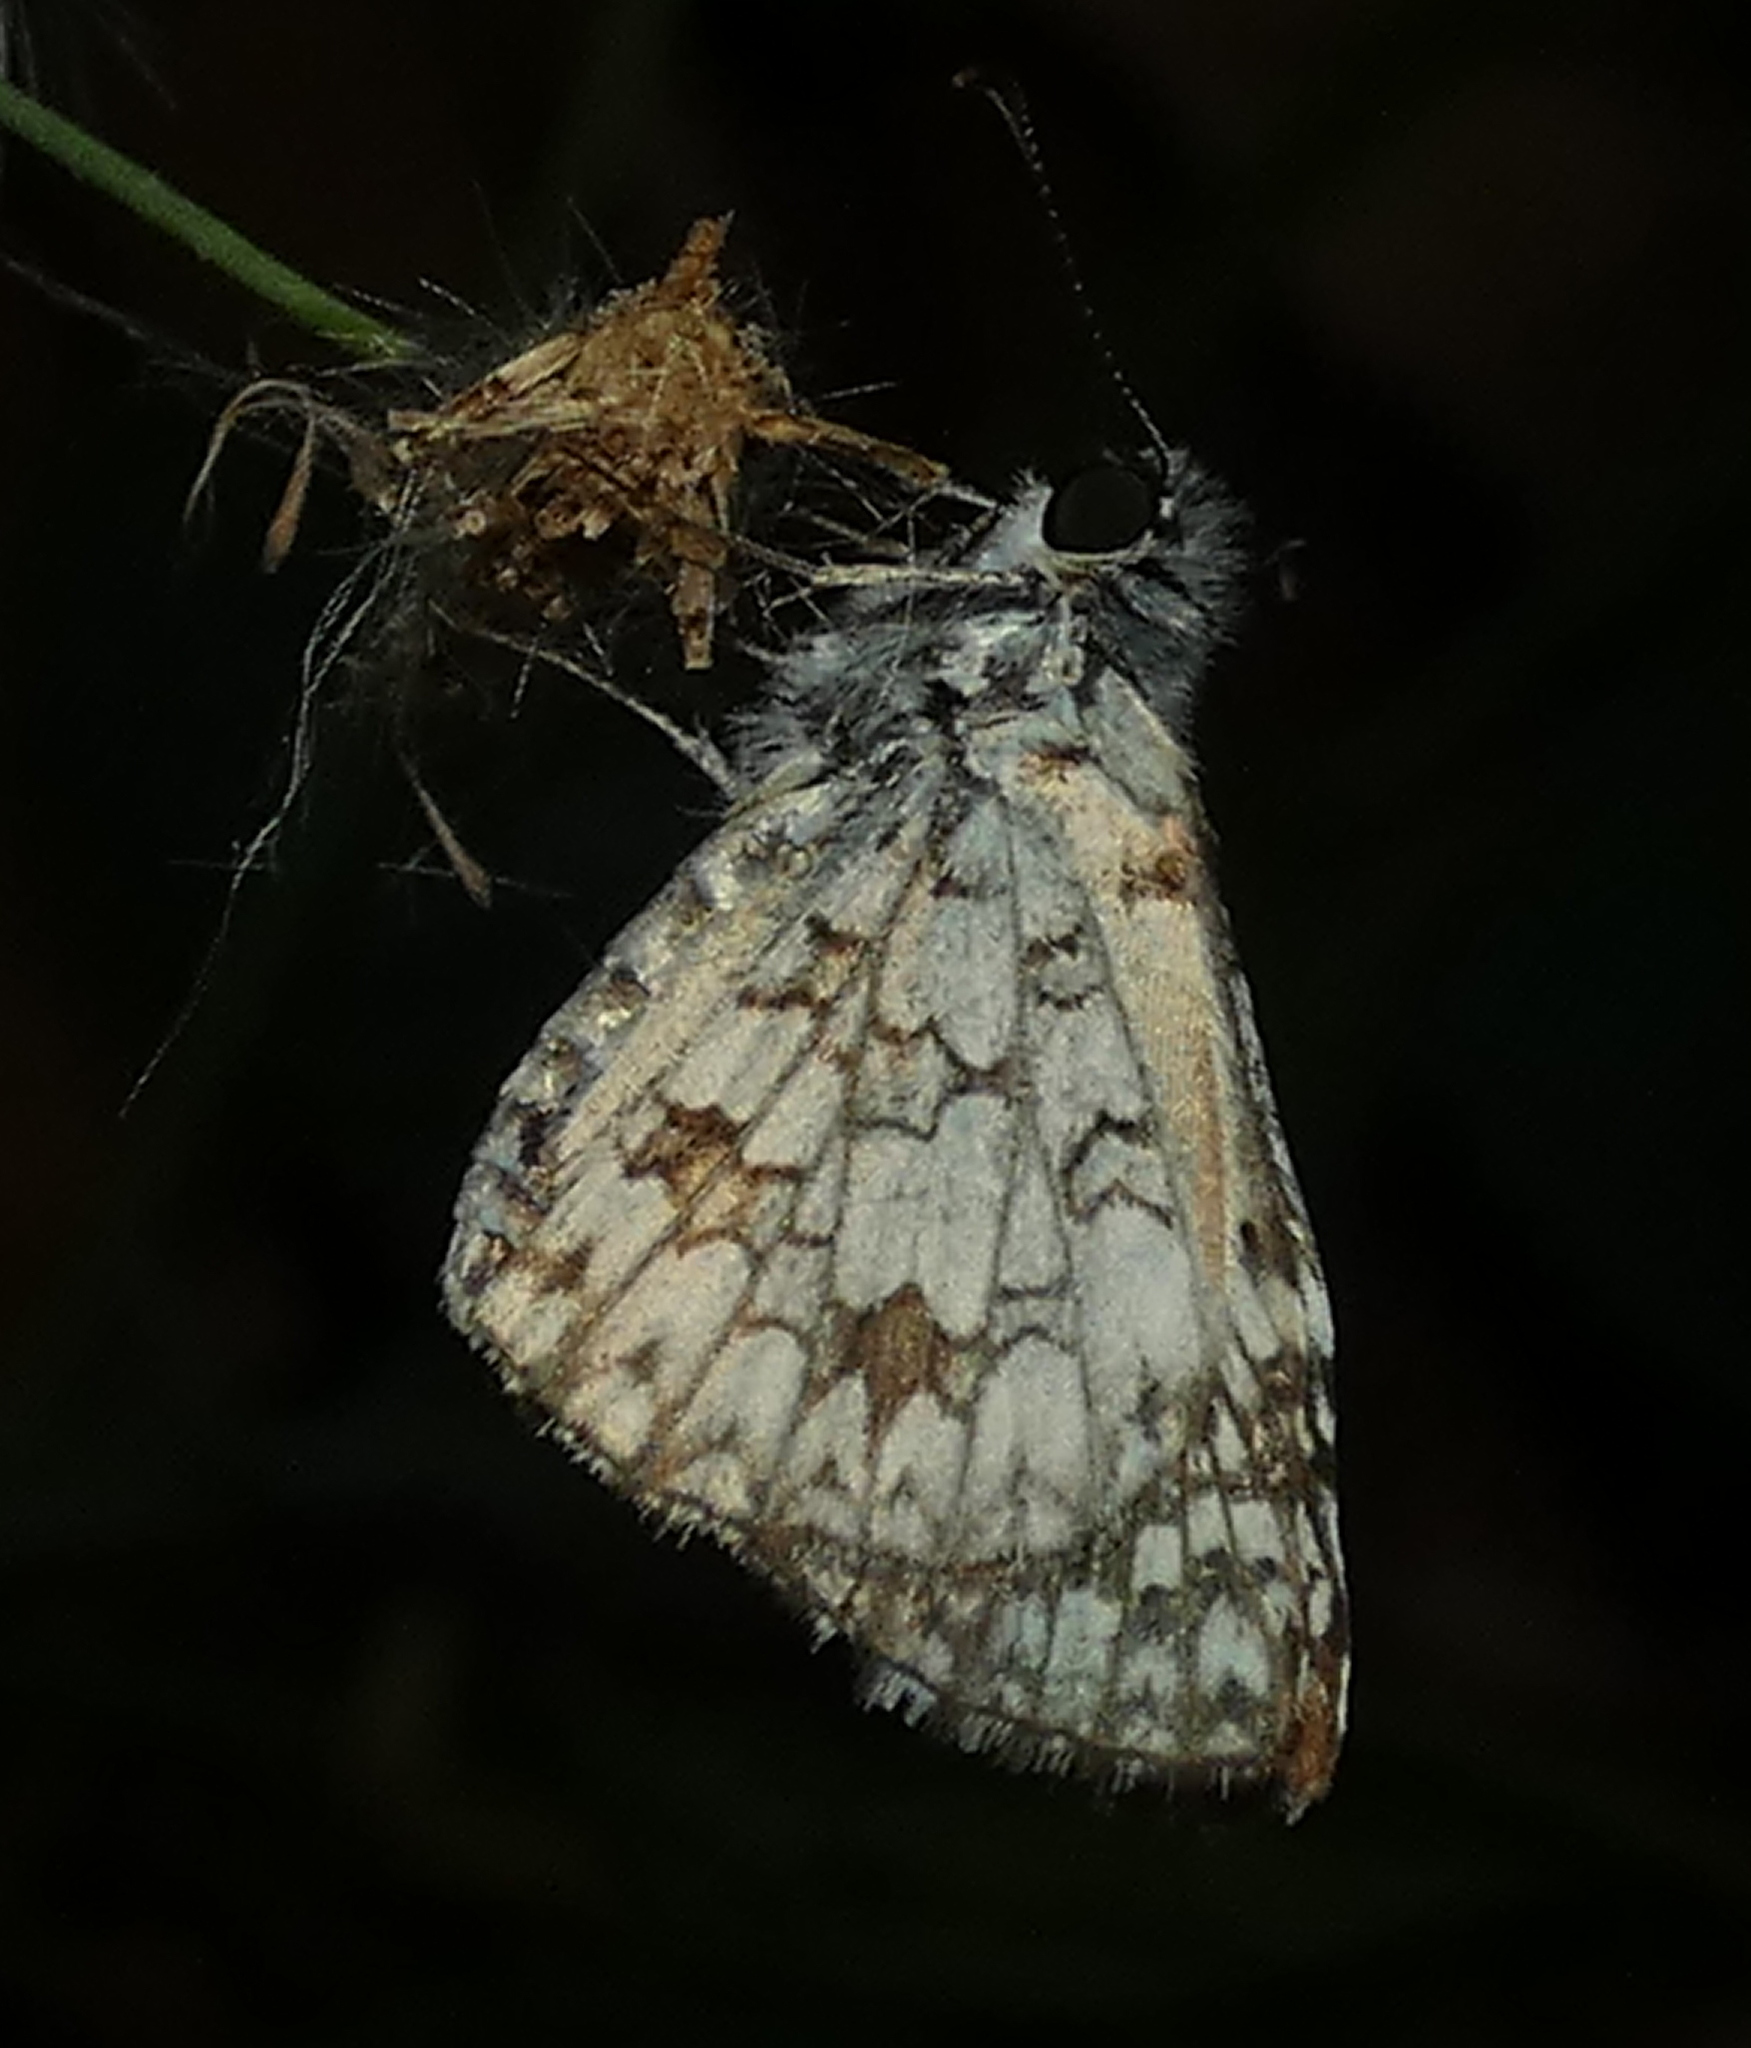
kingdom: Animalia
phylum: Arthropoda
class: Insecta
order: Lepidoptera
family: Hesperiidae
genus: Pyrgus
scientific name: Pyrgus oileus
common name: Tropical checkered-skipper
